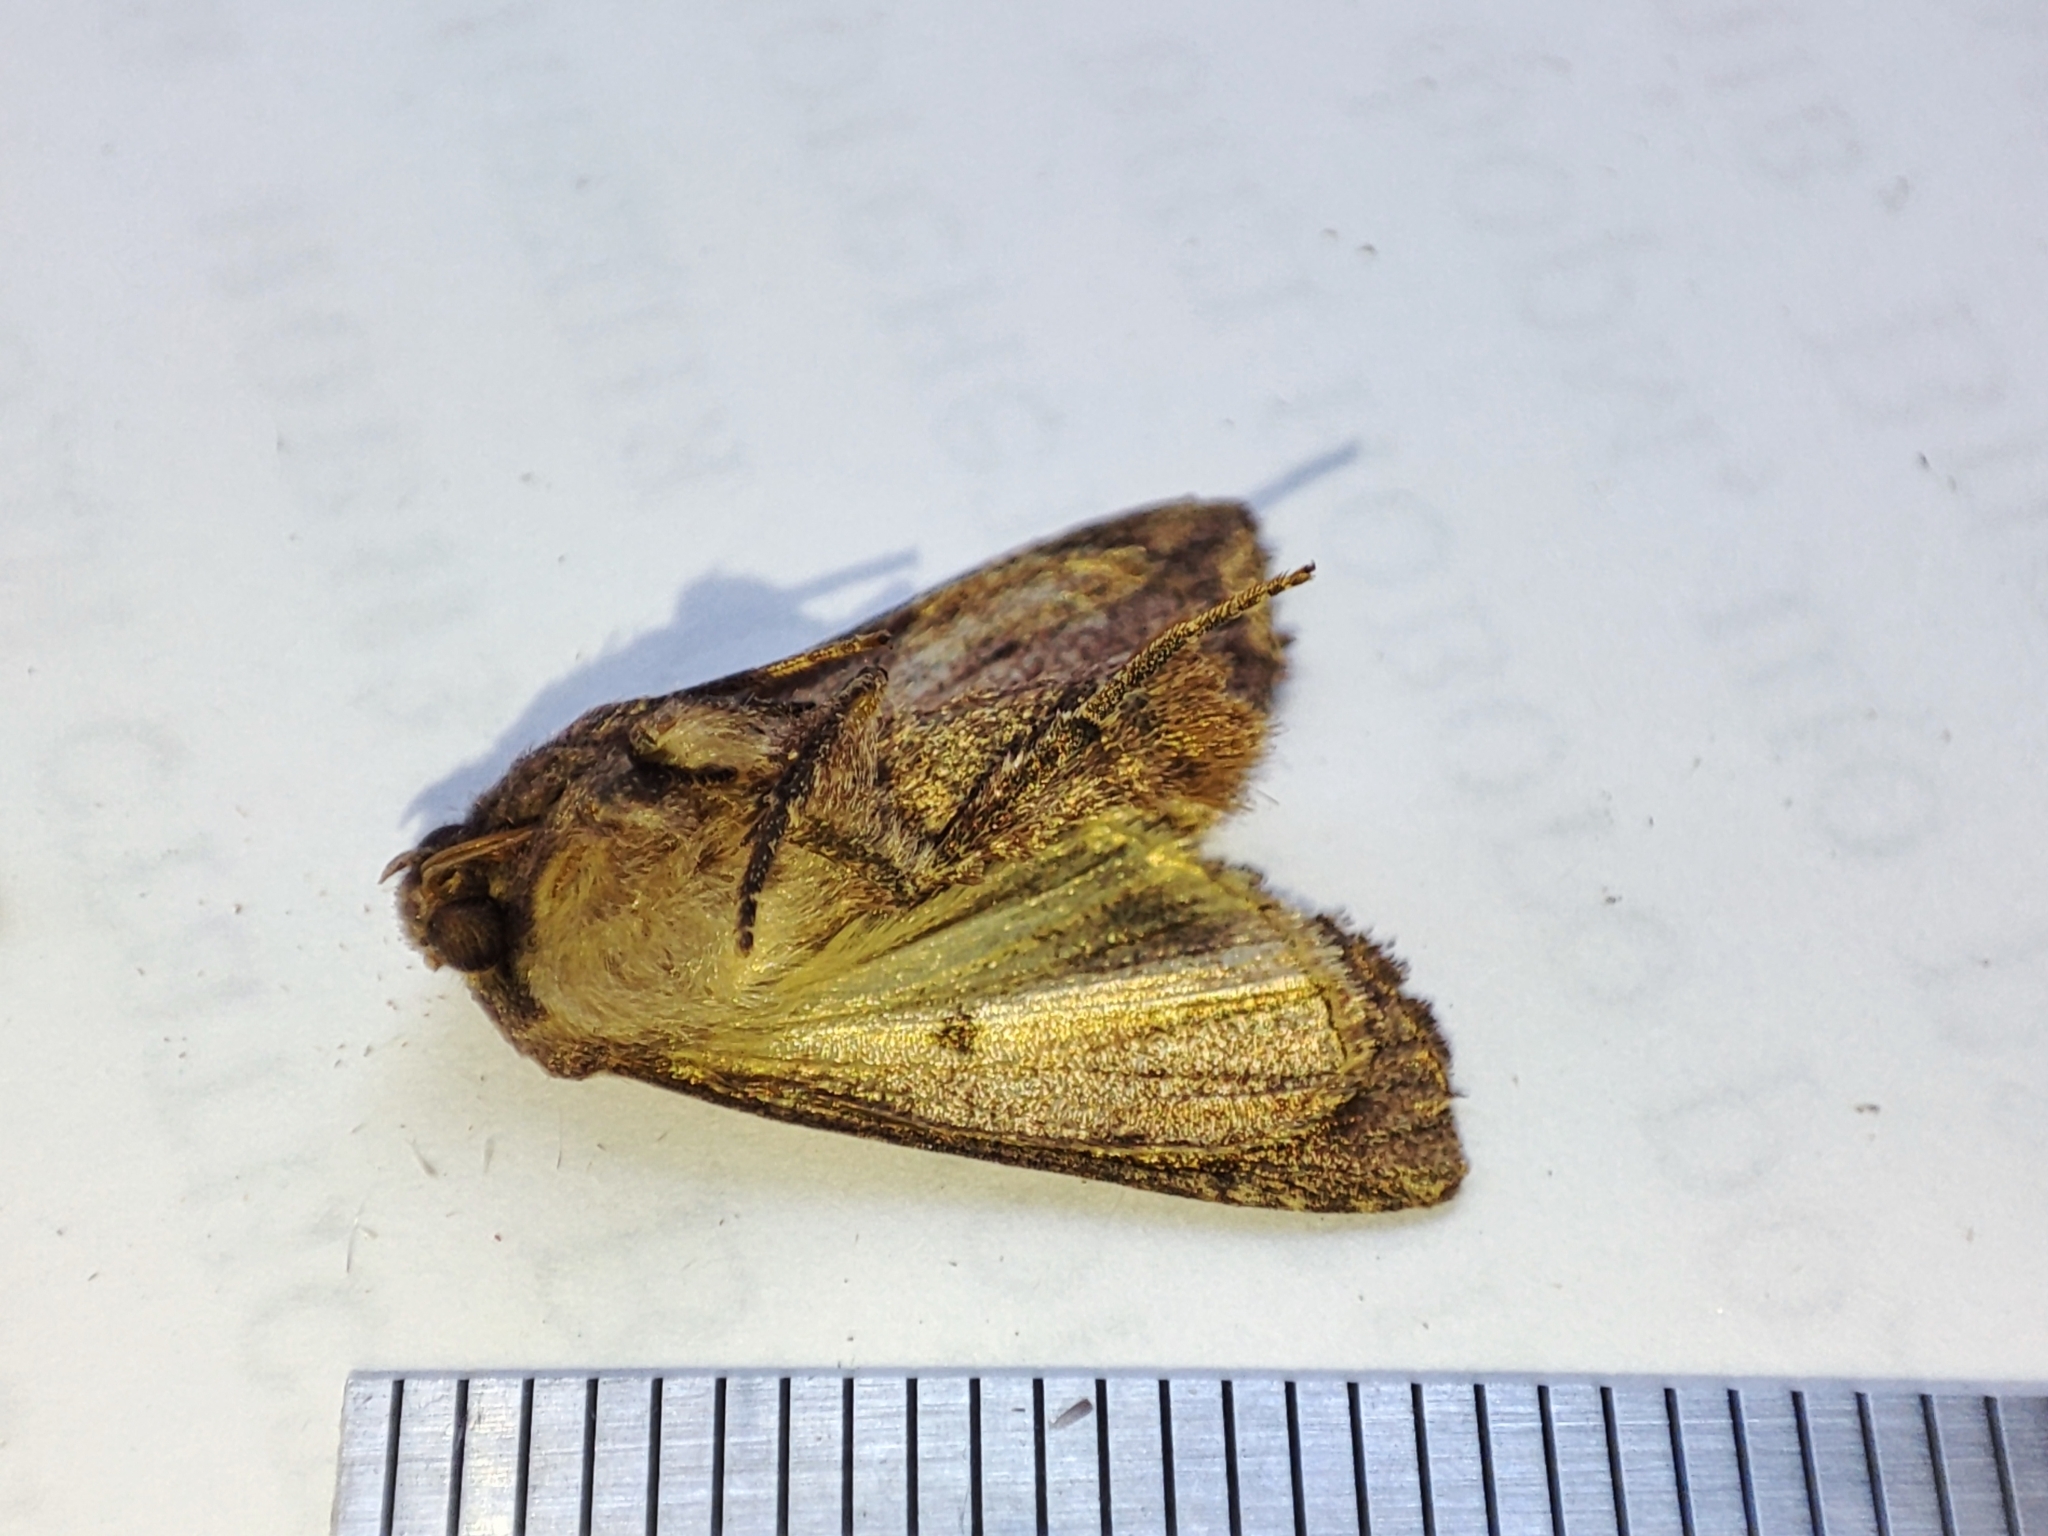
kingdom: Animalia
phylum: Arthropoda
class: Insecta
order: Lepidoptera
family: Noctuidae
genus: Lacanobia
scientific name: Lacanobia oleracea
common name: Bright-line brown-eye
